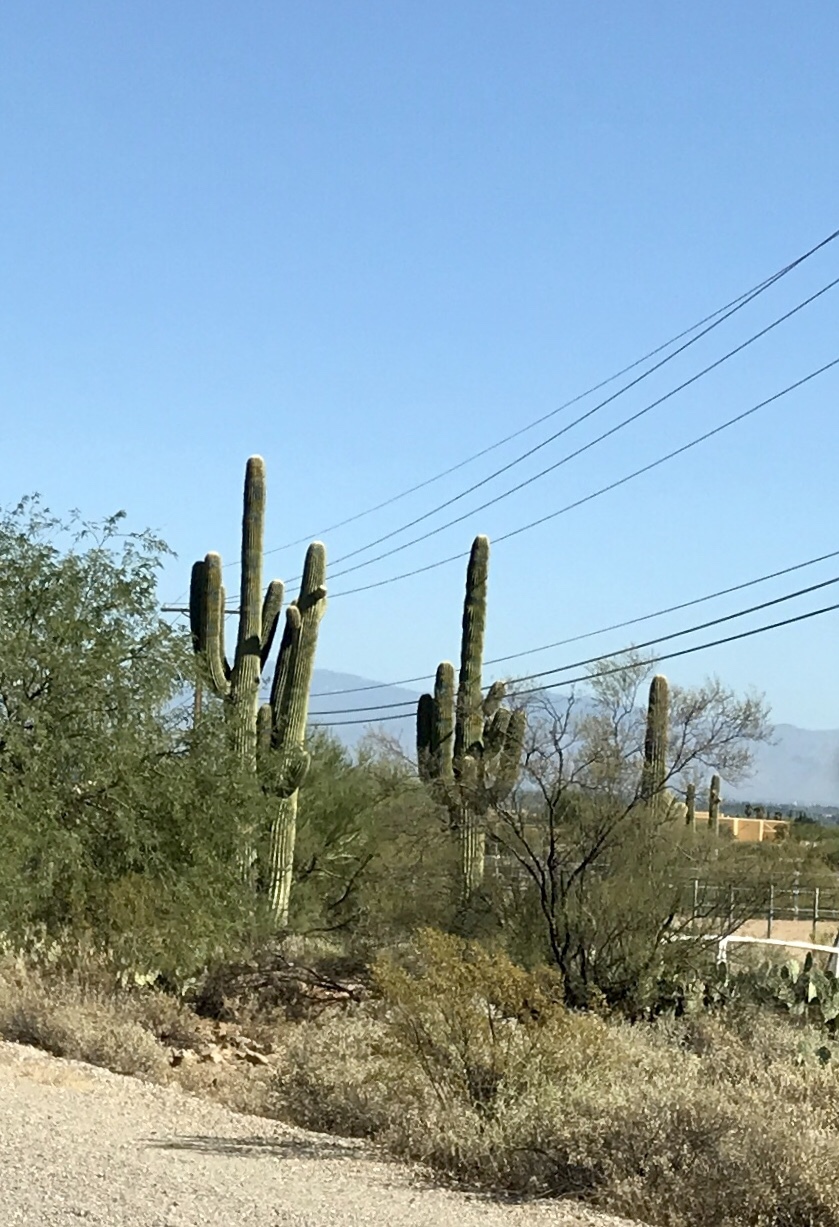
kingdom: Plantae
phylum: Tracheophyta
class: Magnoliopsida
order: Caryophyllales
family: Cactaceae
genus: Carnegiea
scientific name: Carnegiea gigantea
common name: Saguaro
